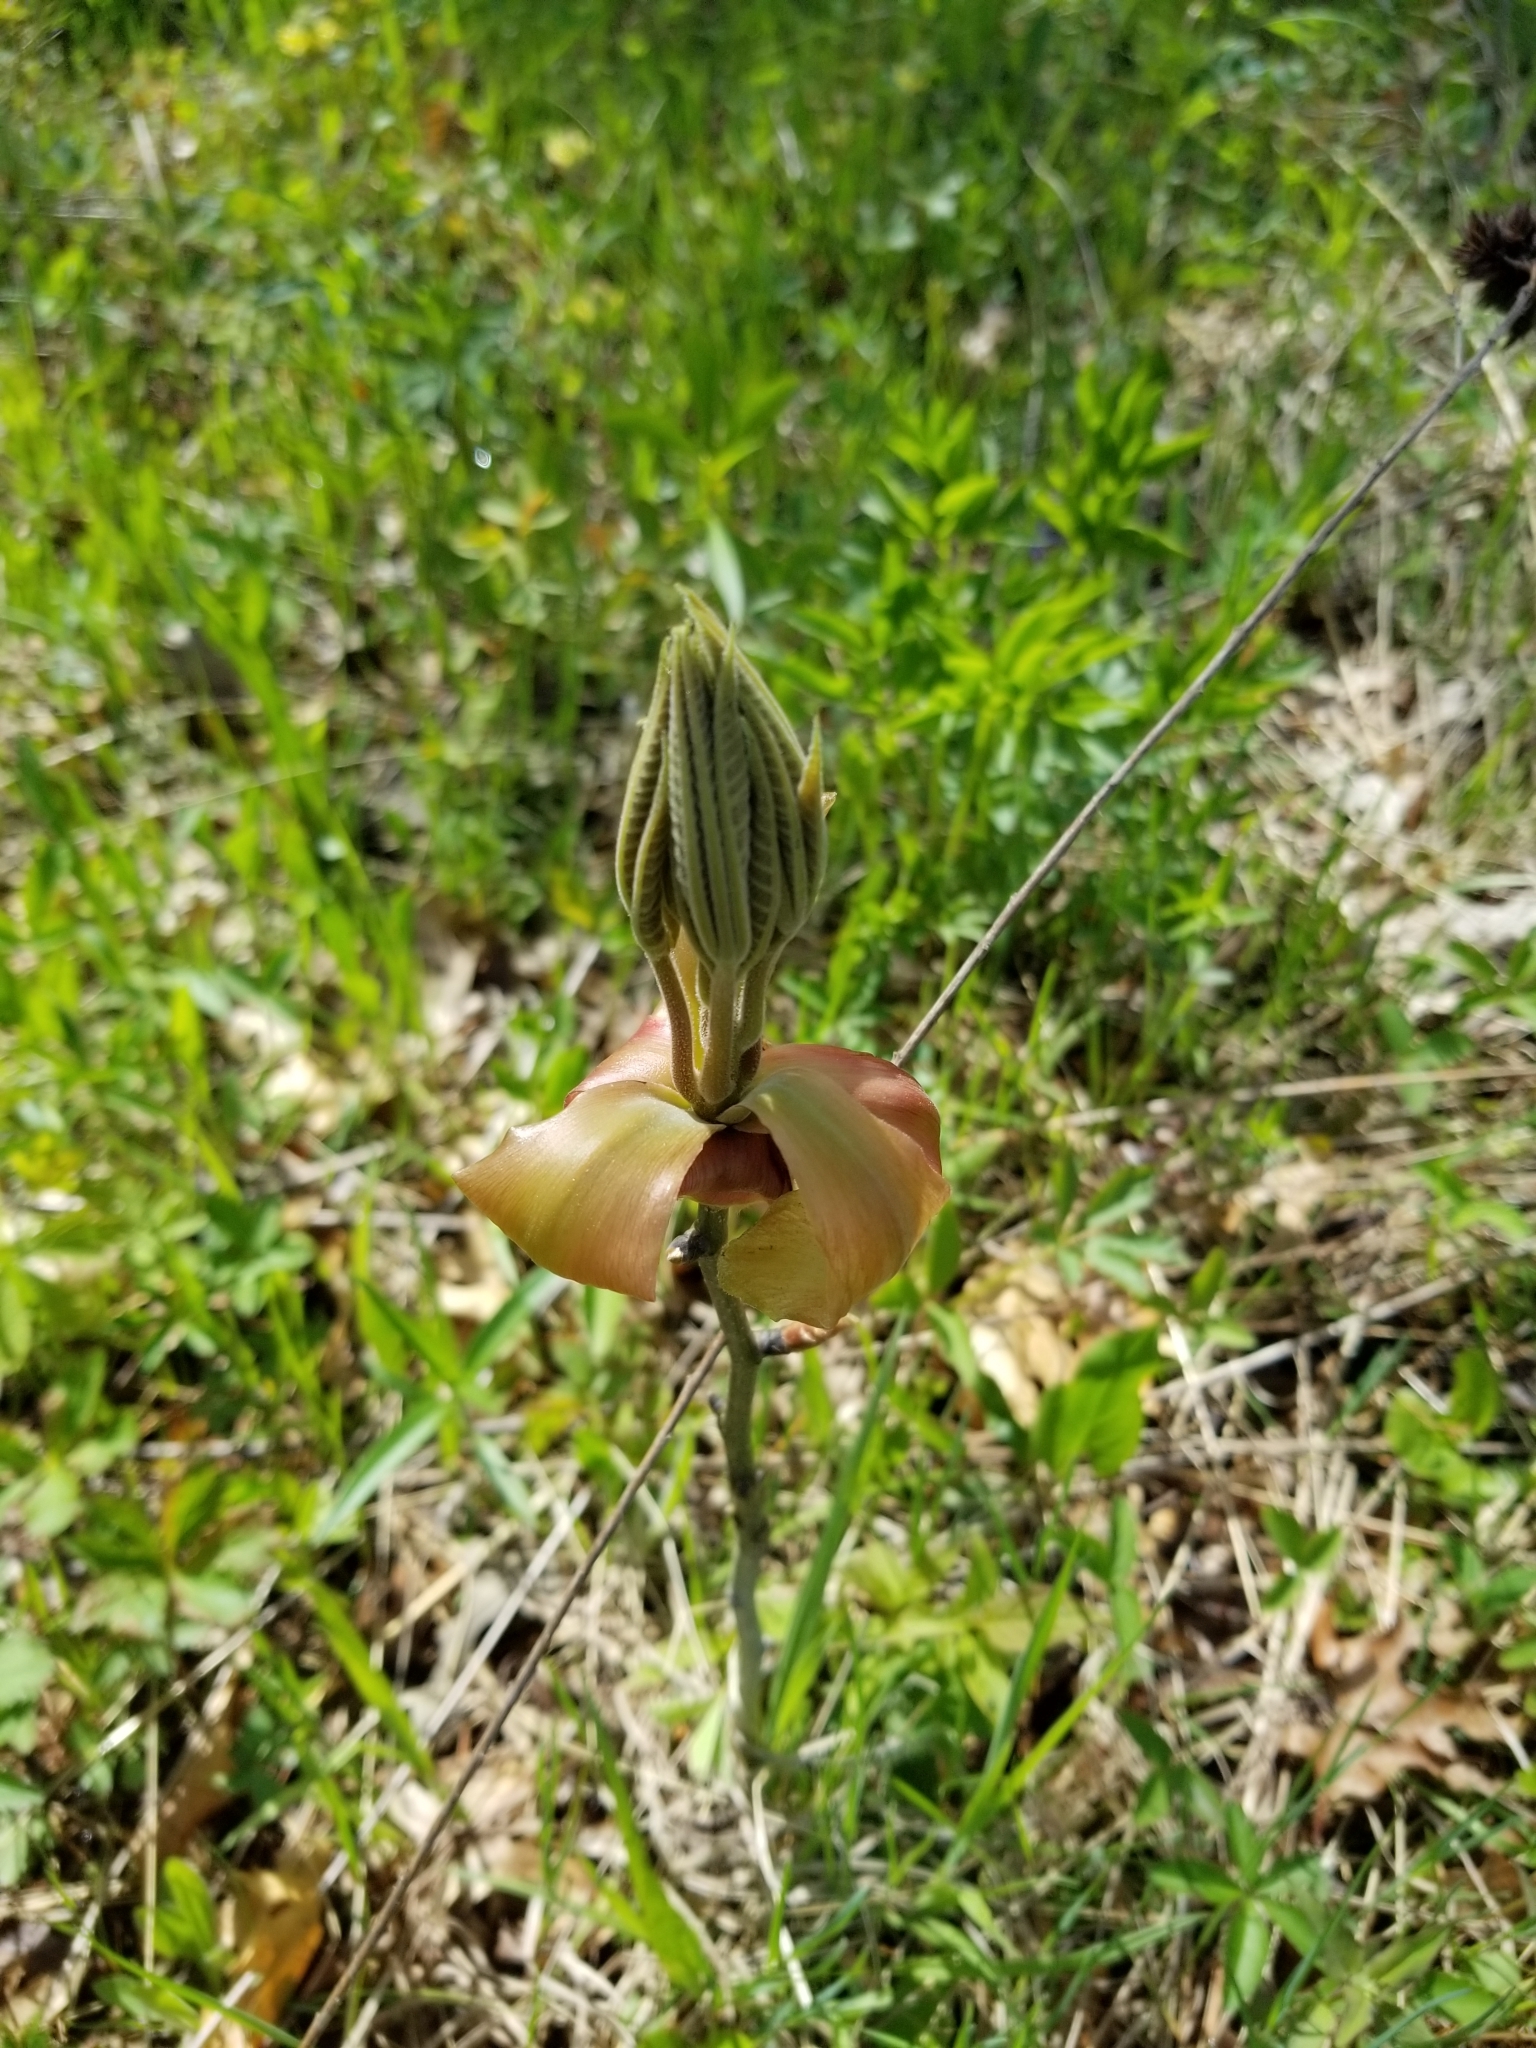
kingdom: Plantae
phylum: Tracheophyta
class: Magnoliopsida
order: Fagales
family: Juglandaceae
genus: Carya
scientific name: Carya ovata
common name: Shagbark hickory
